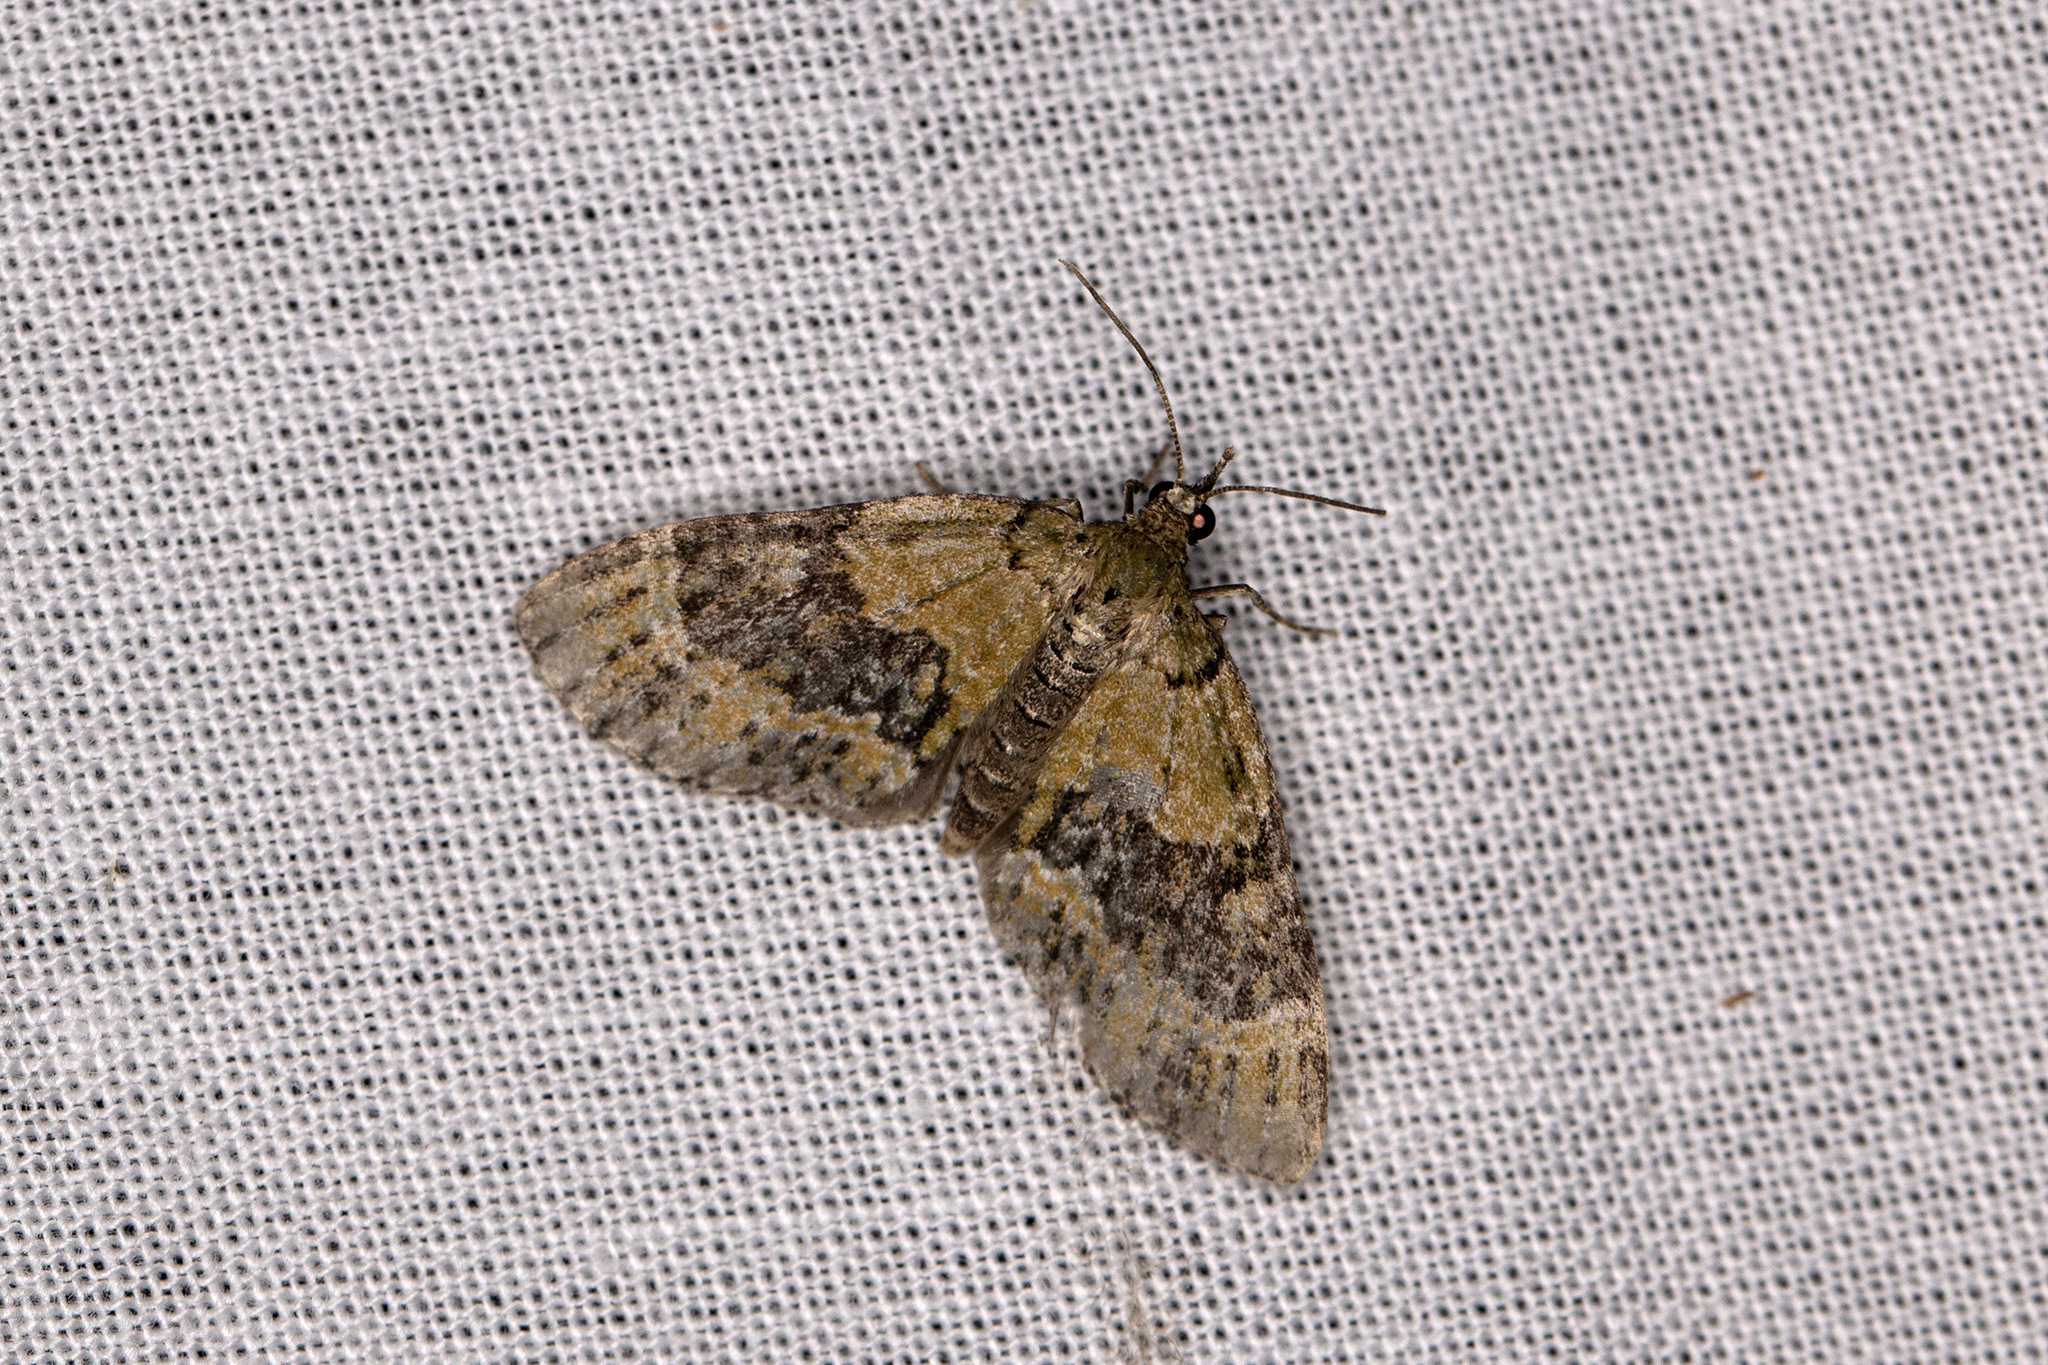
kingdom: Animalia
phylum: Arthropoda
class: Insecta
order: Lepidoptera
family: Geometridae
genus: Acasis
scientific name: Acasis viretata
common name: Yellow-barred brindle
